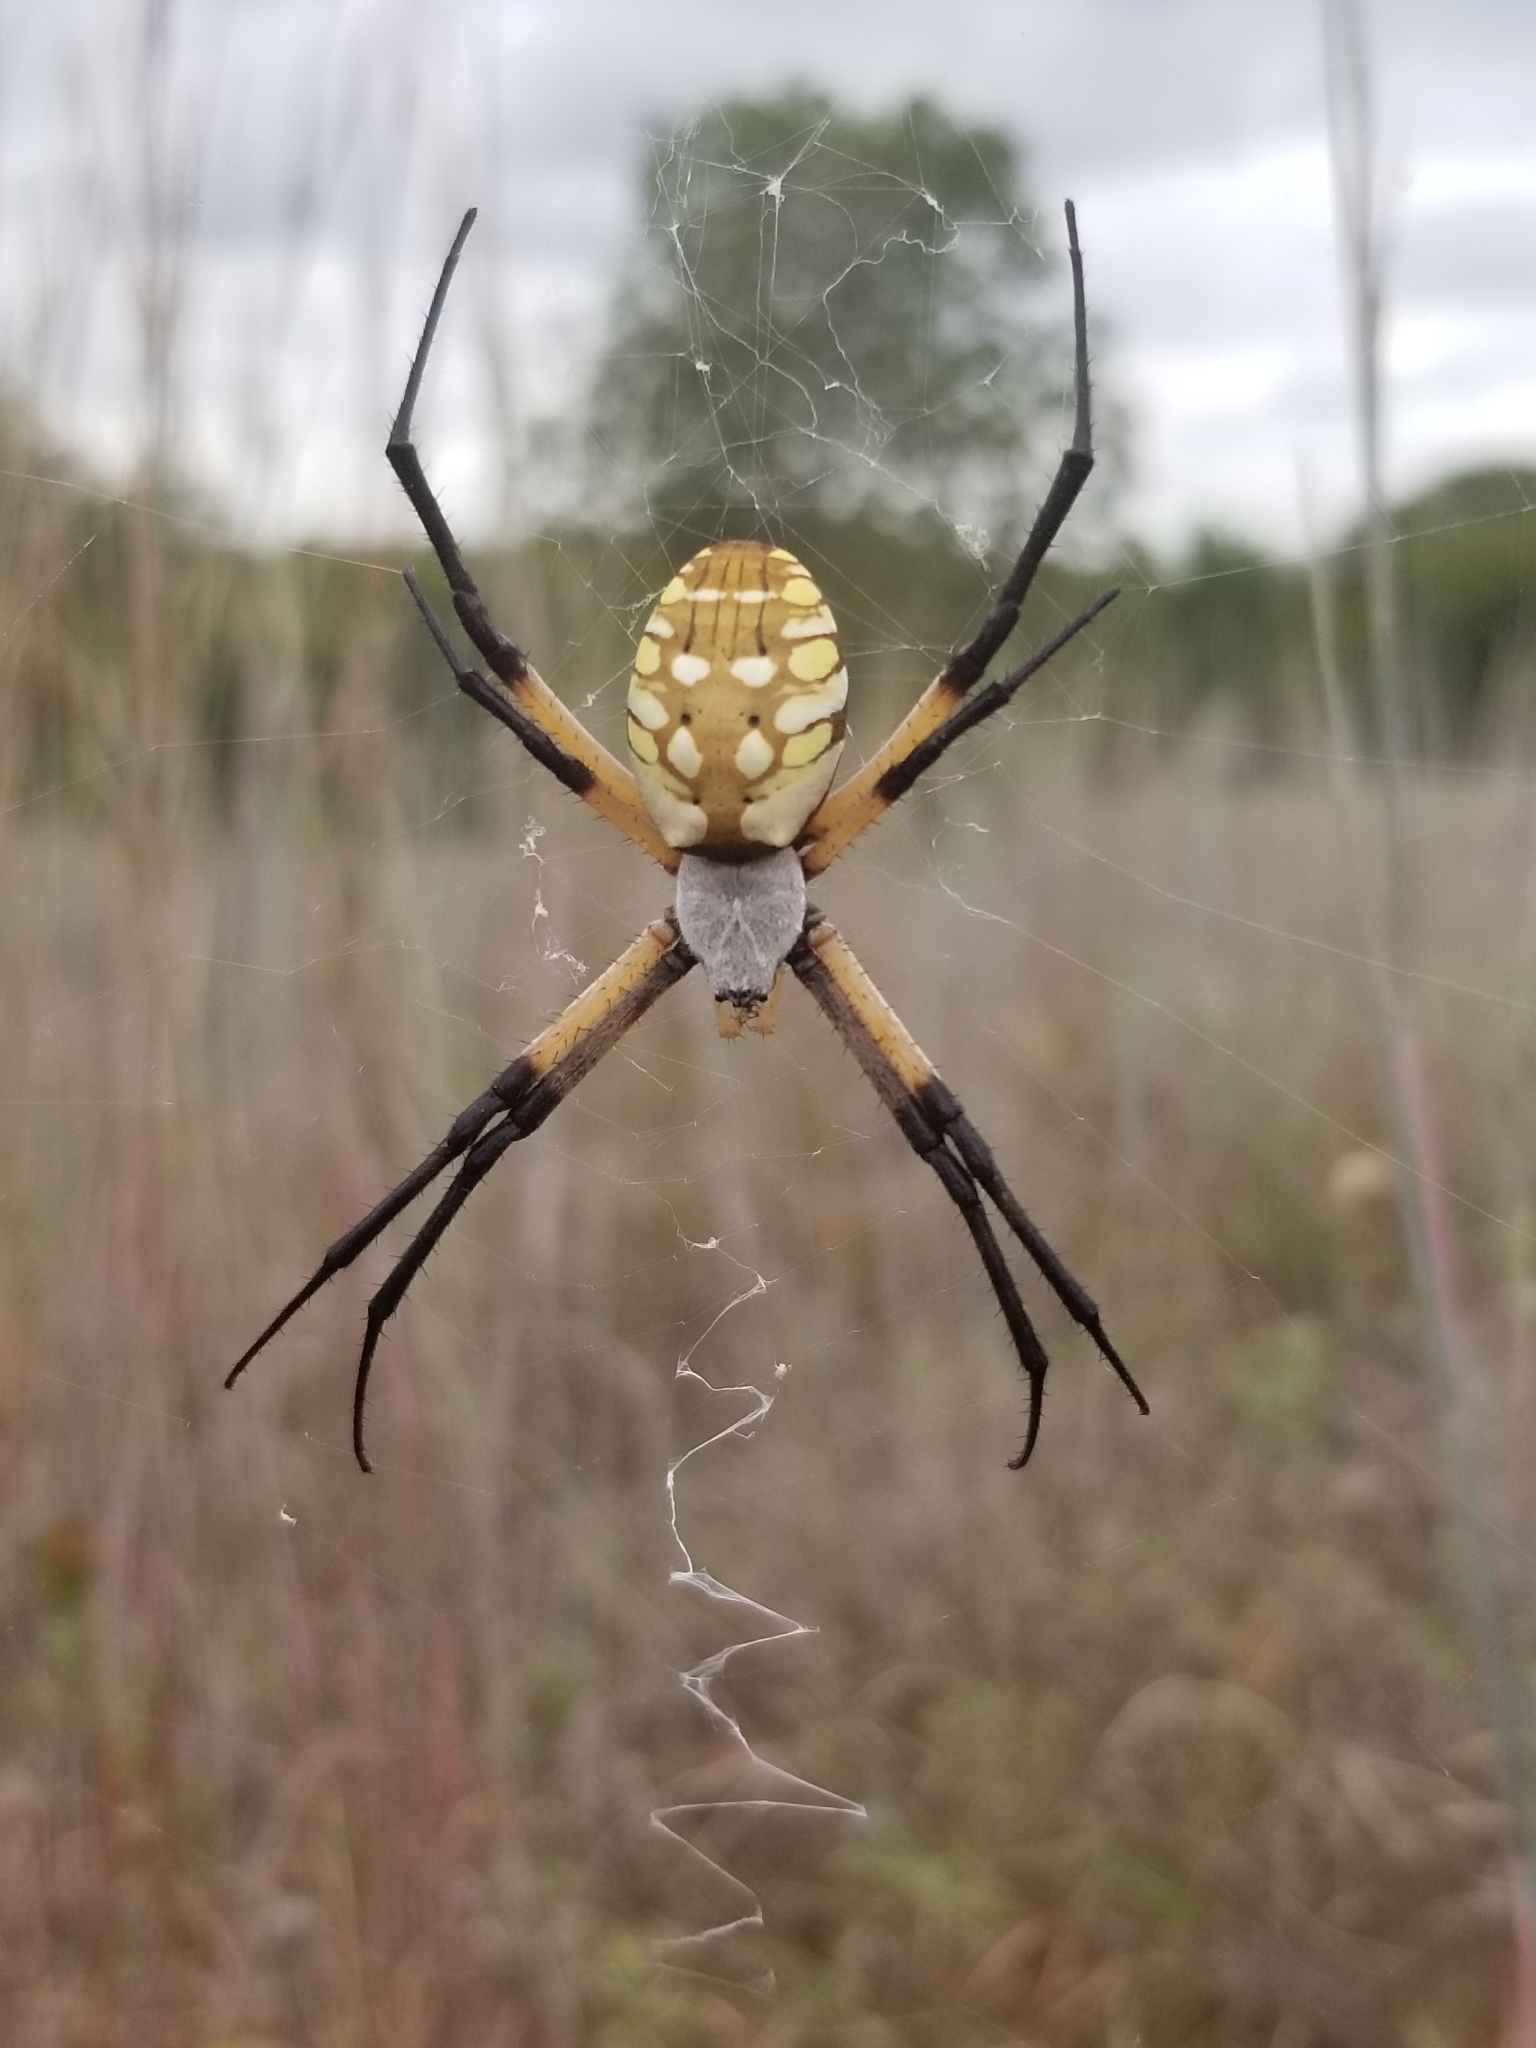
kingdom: Animalia
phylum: Arthropoda
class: Arachnida
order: Araneae
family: Araneidae
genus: Argiope
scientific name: Argiope aurantia
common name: Orb weavers
